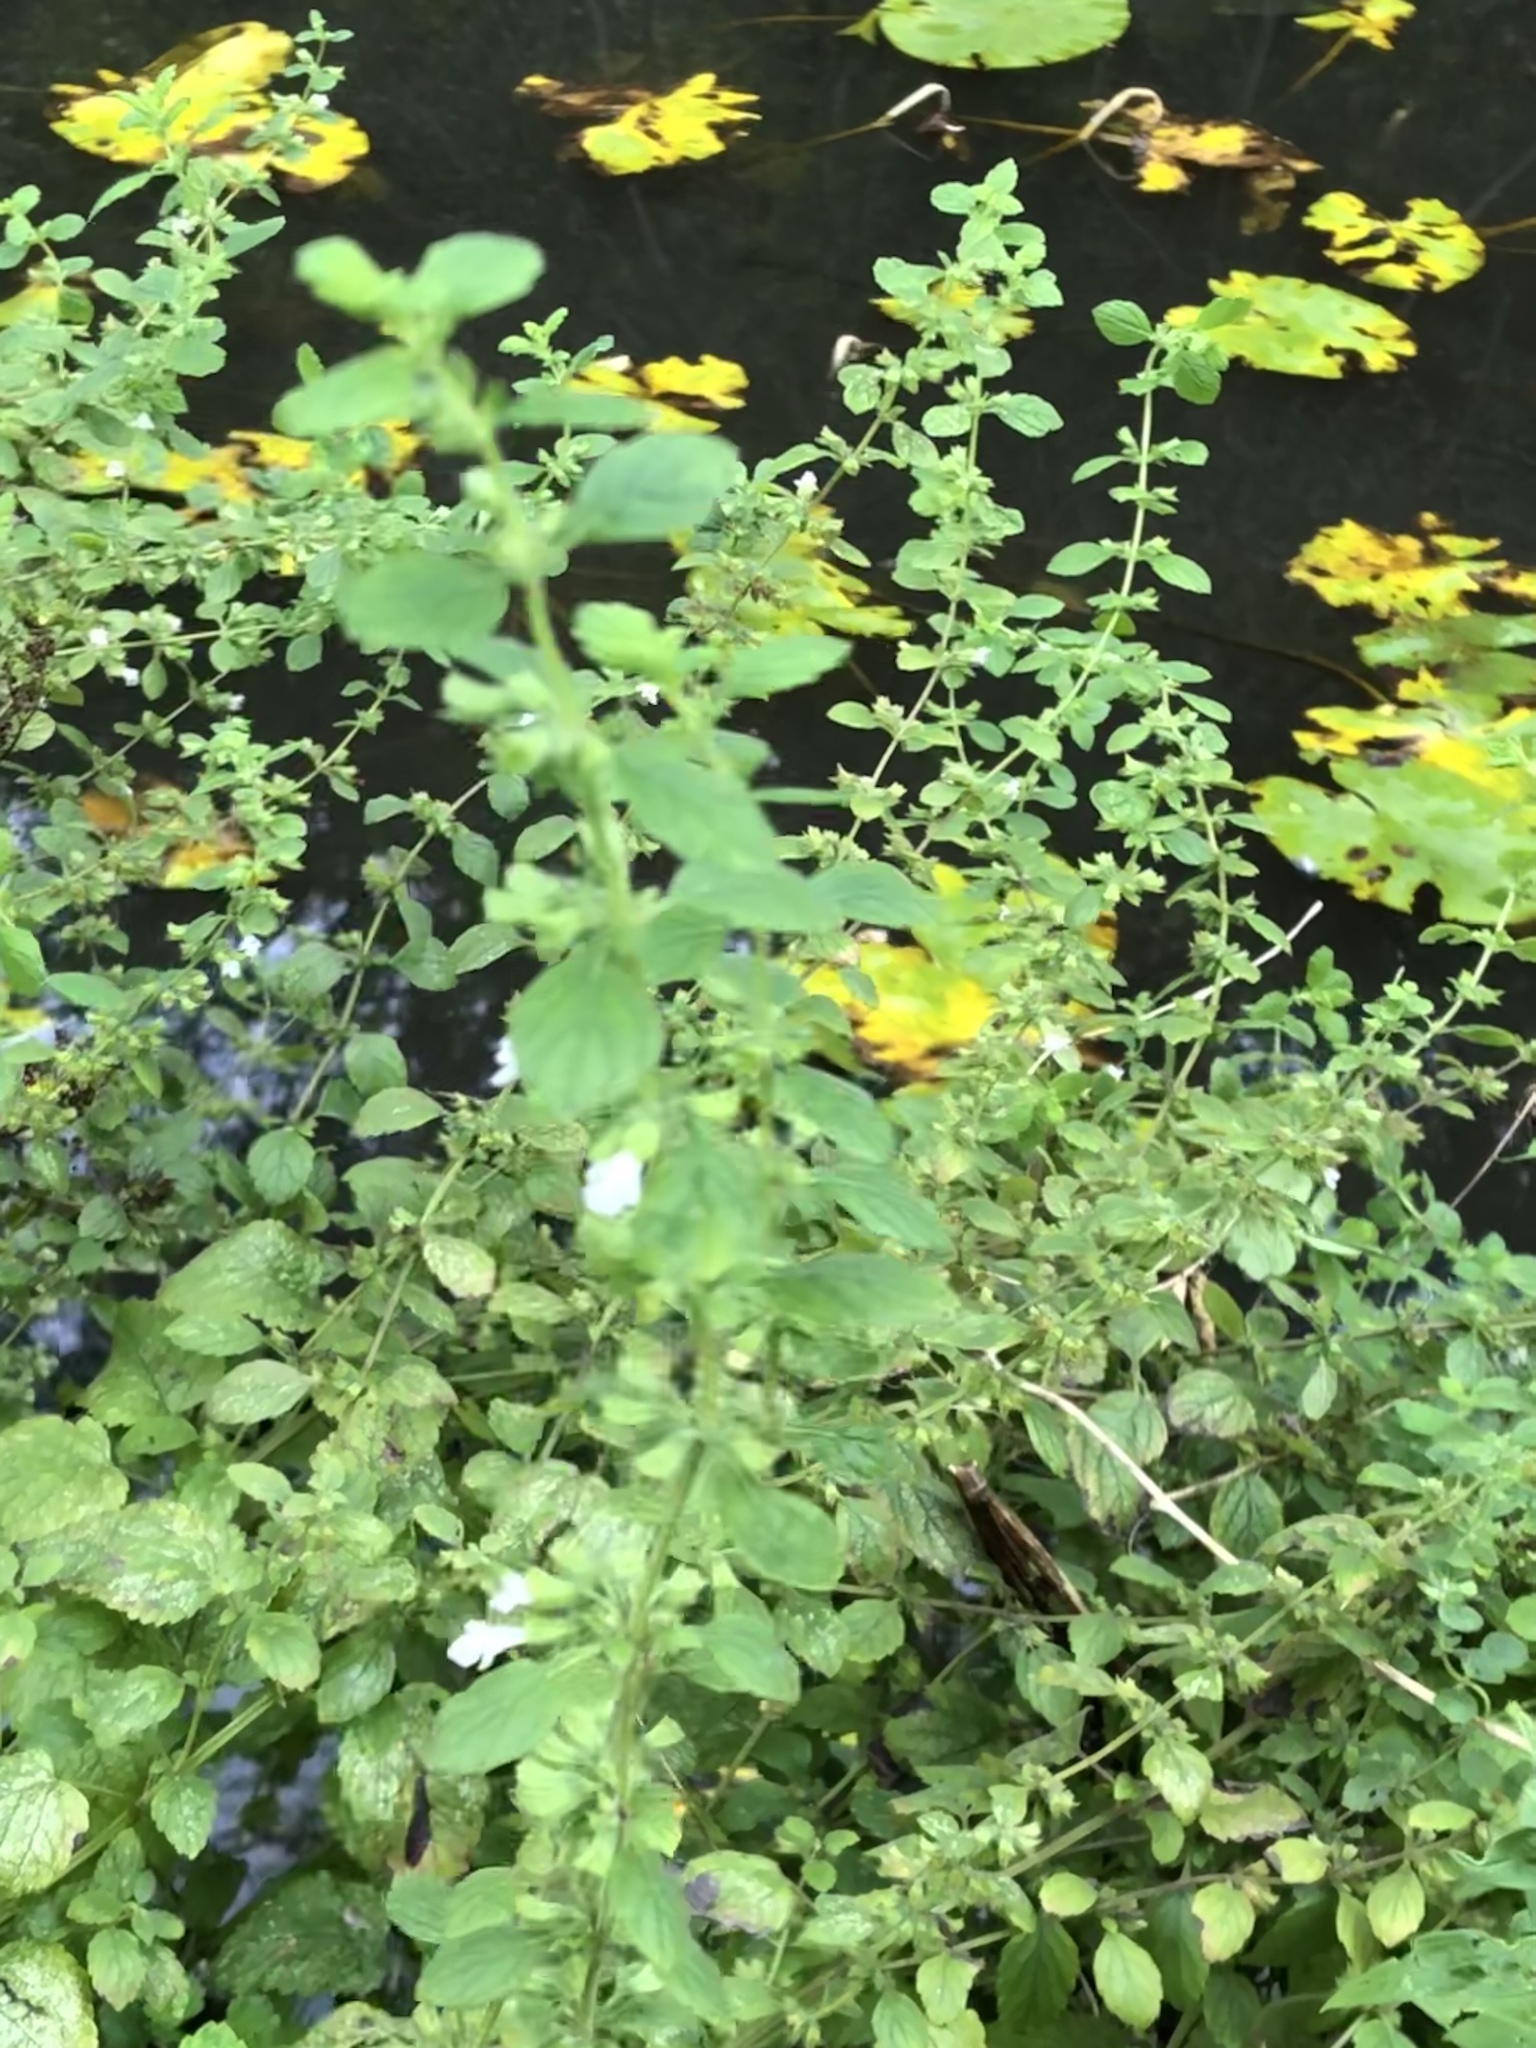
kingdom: Plantae
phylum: Tracheophyta
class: Magnoliopsida
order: Lamiales
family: Lamiaceae
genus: Melissa
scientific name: Melissa officinalis
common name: Balm
